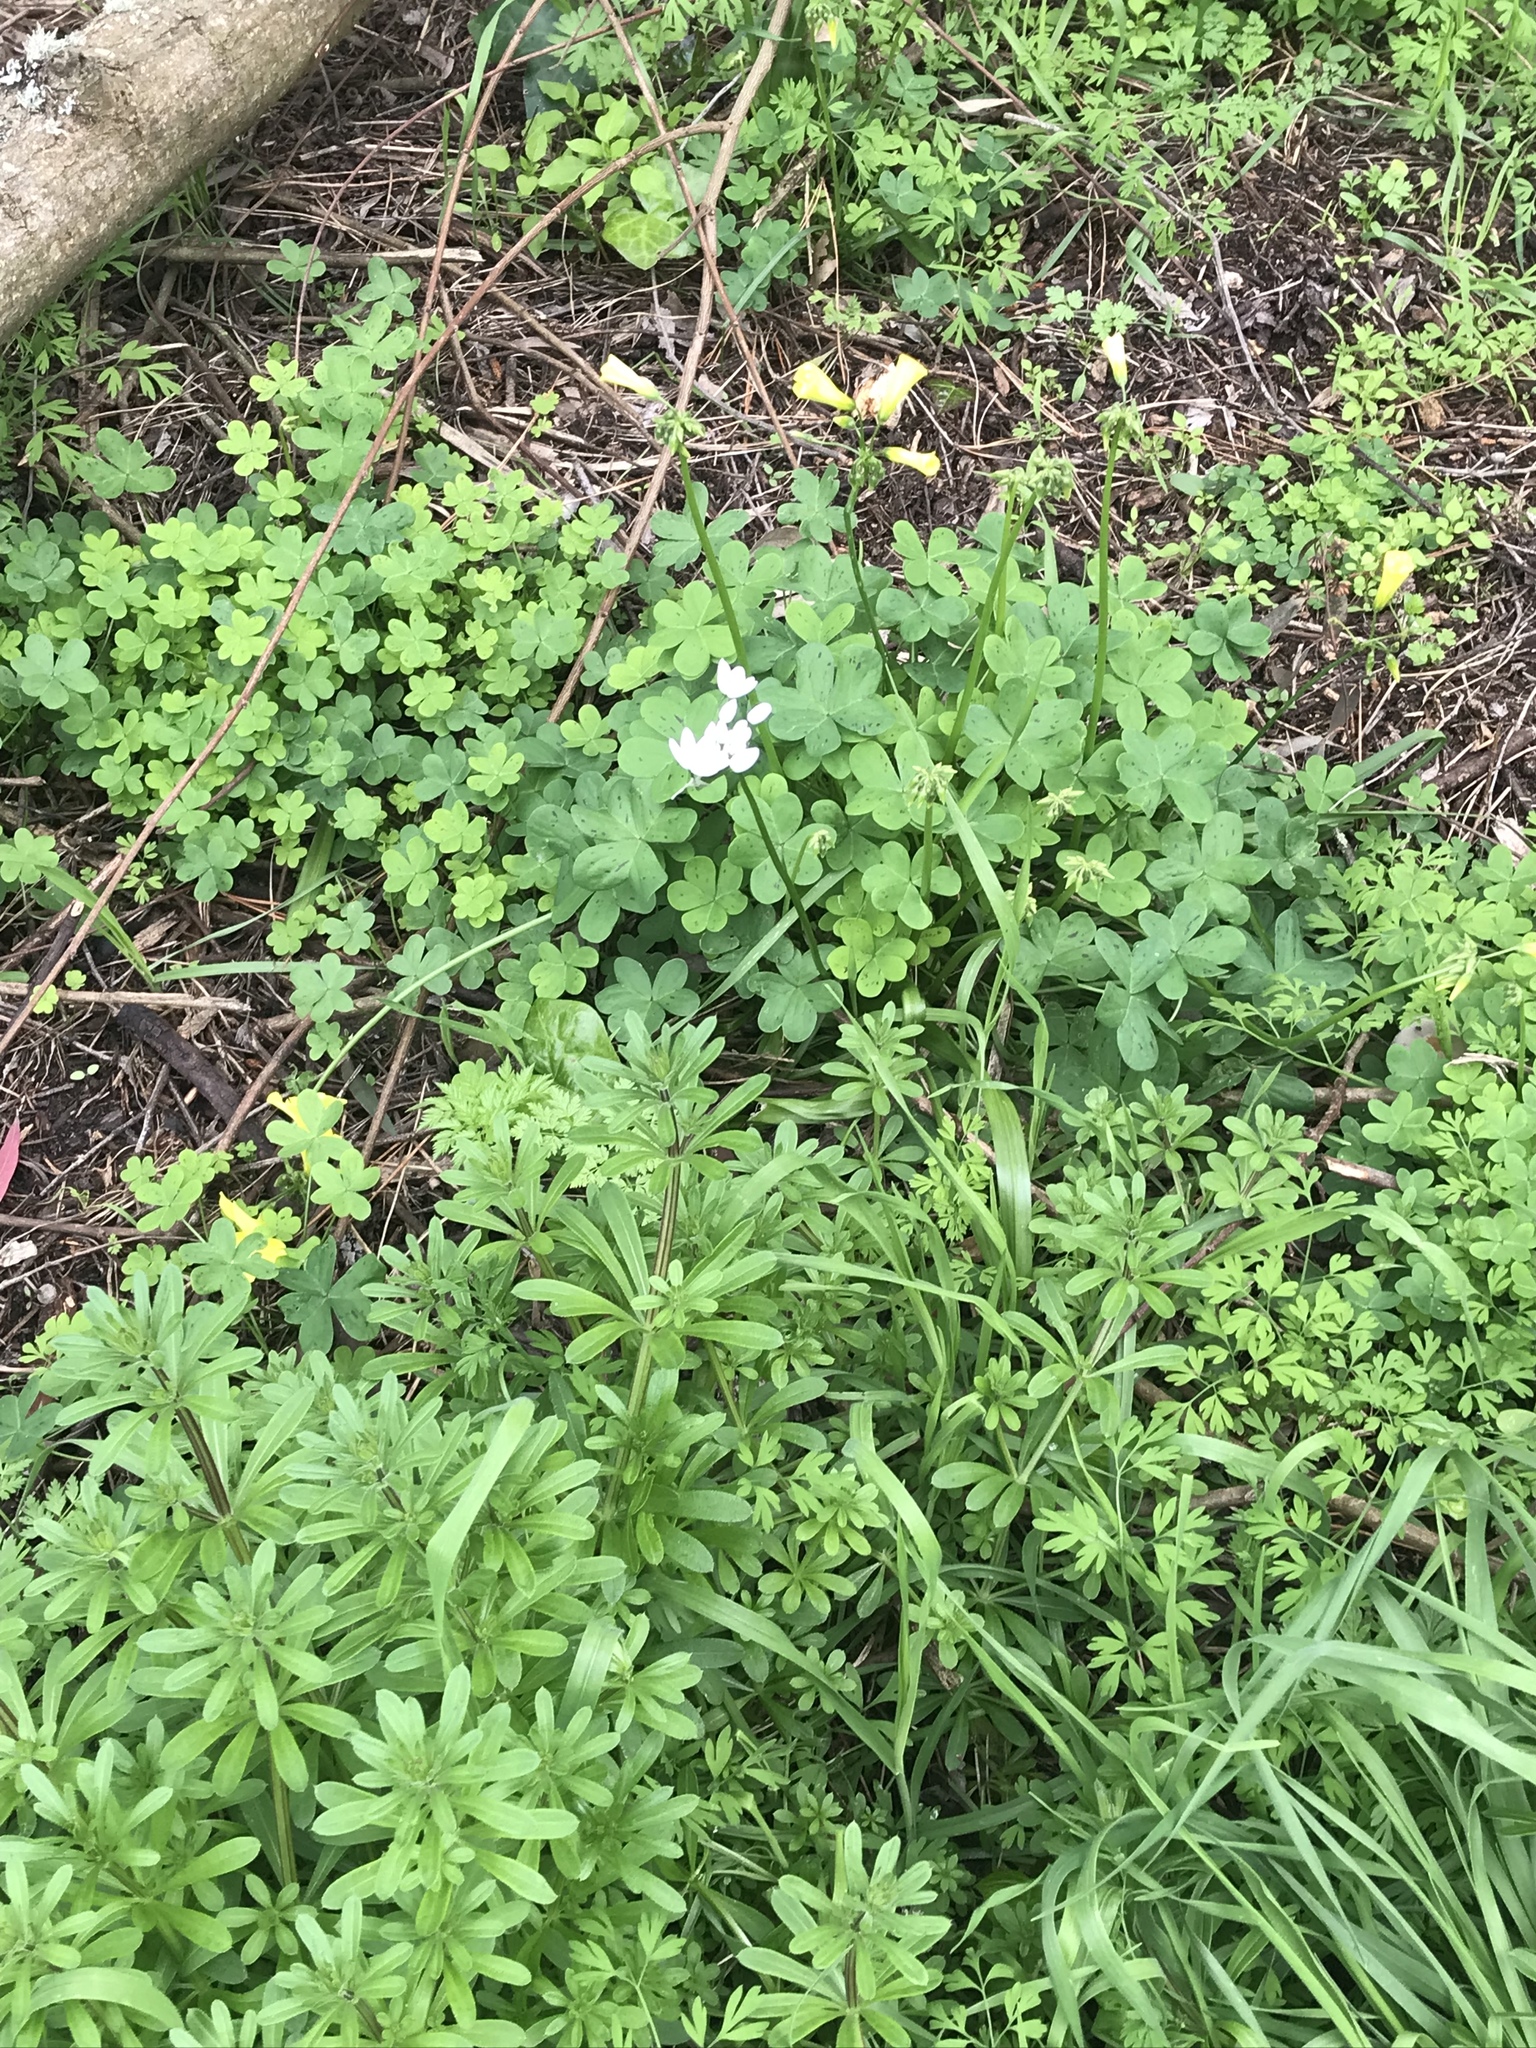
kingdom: Plantae
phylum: Tracheophyta
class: Liliopsida
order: Asparagales
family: Amaryllidaceae
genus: Allium
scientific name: Allium neapolitanum
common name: Neapolitan garlic
